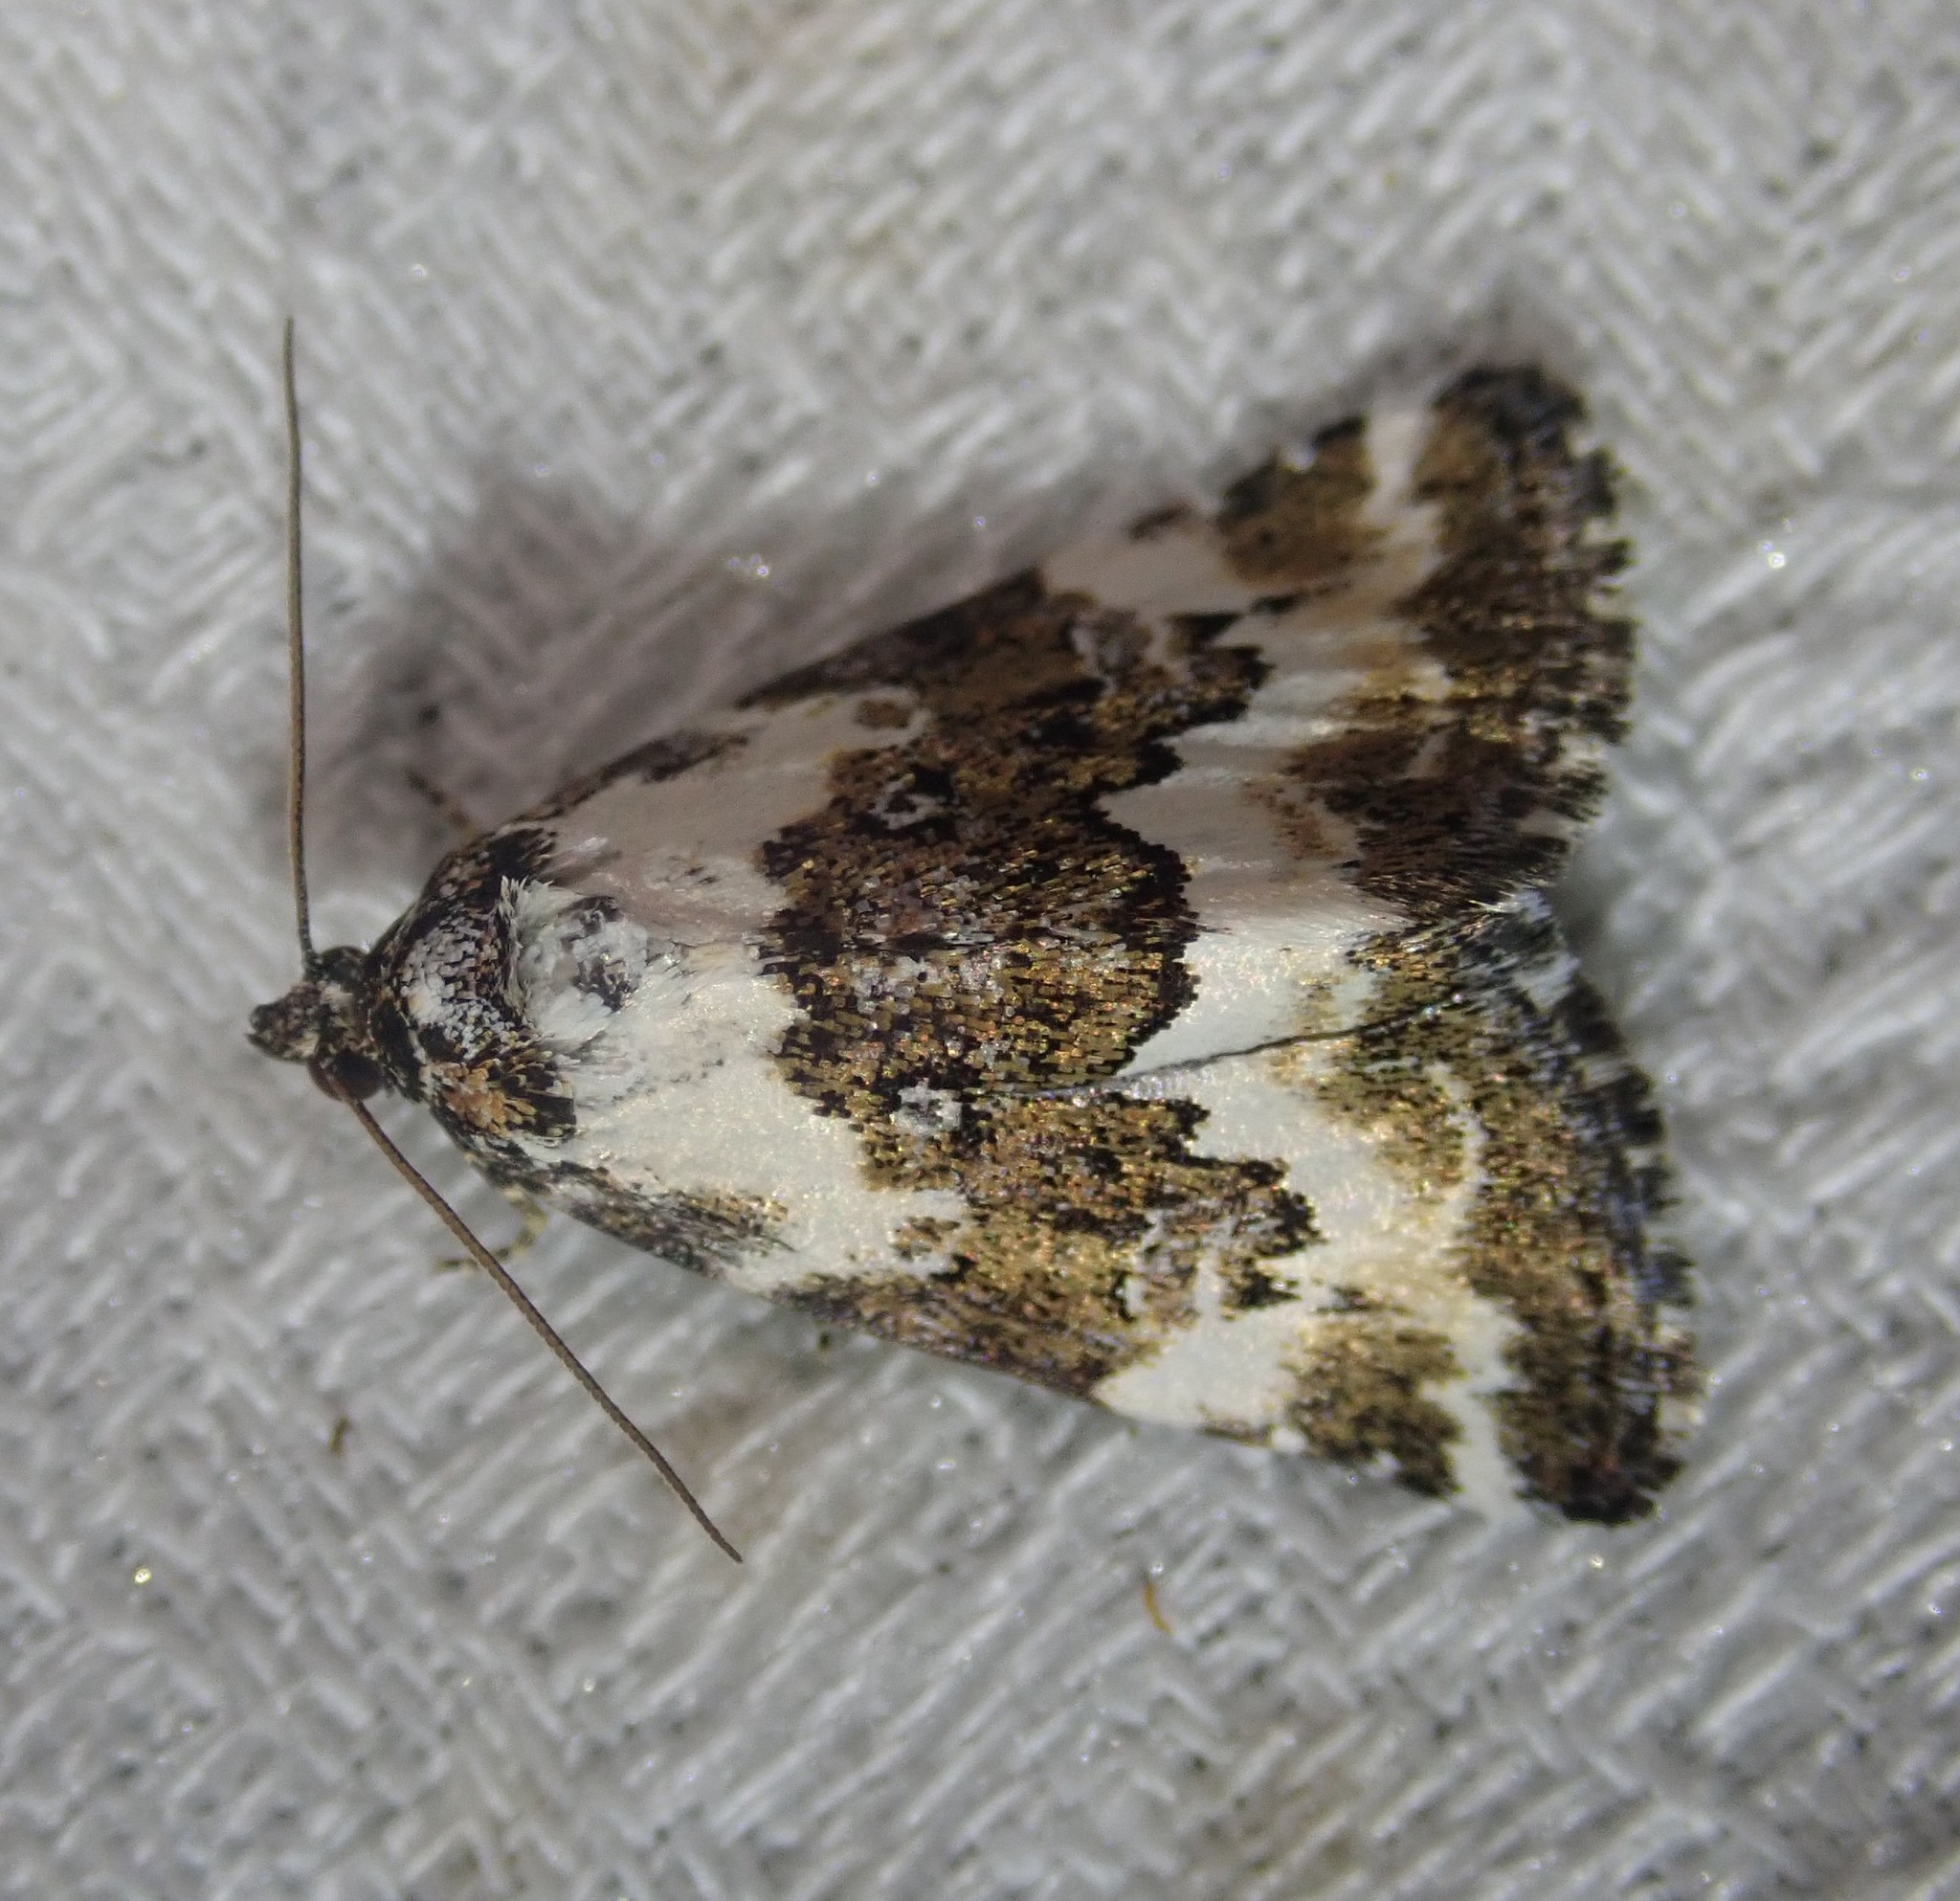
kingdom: Animalia
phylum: Arthropoda
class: Insecta
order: Lepidoptera
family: Noctuidae
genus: Deltote
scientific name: Deltote deceptoria
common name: Pretty marbled
